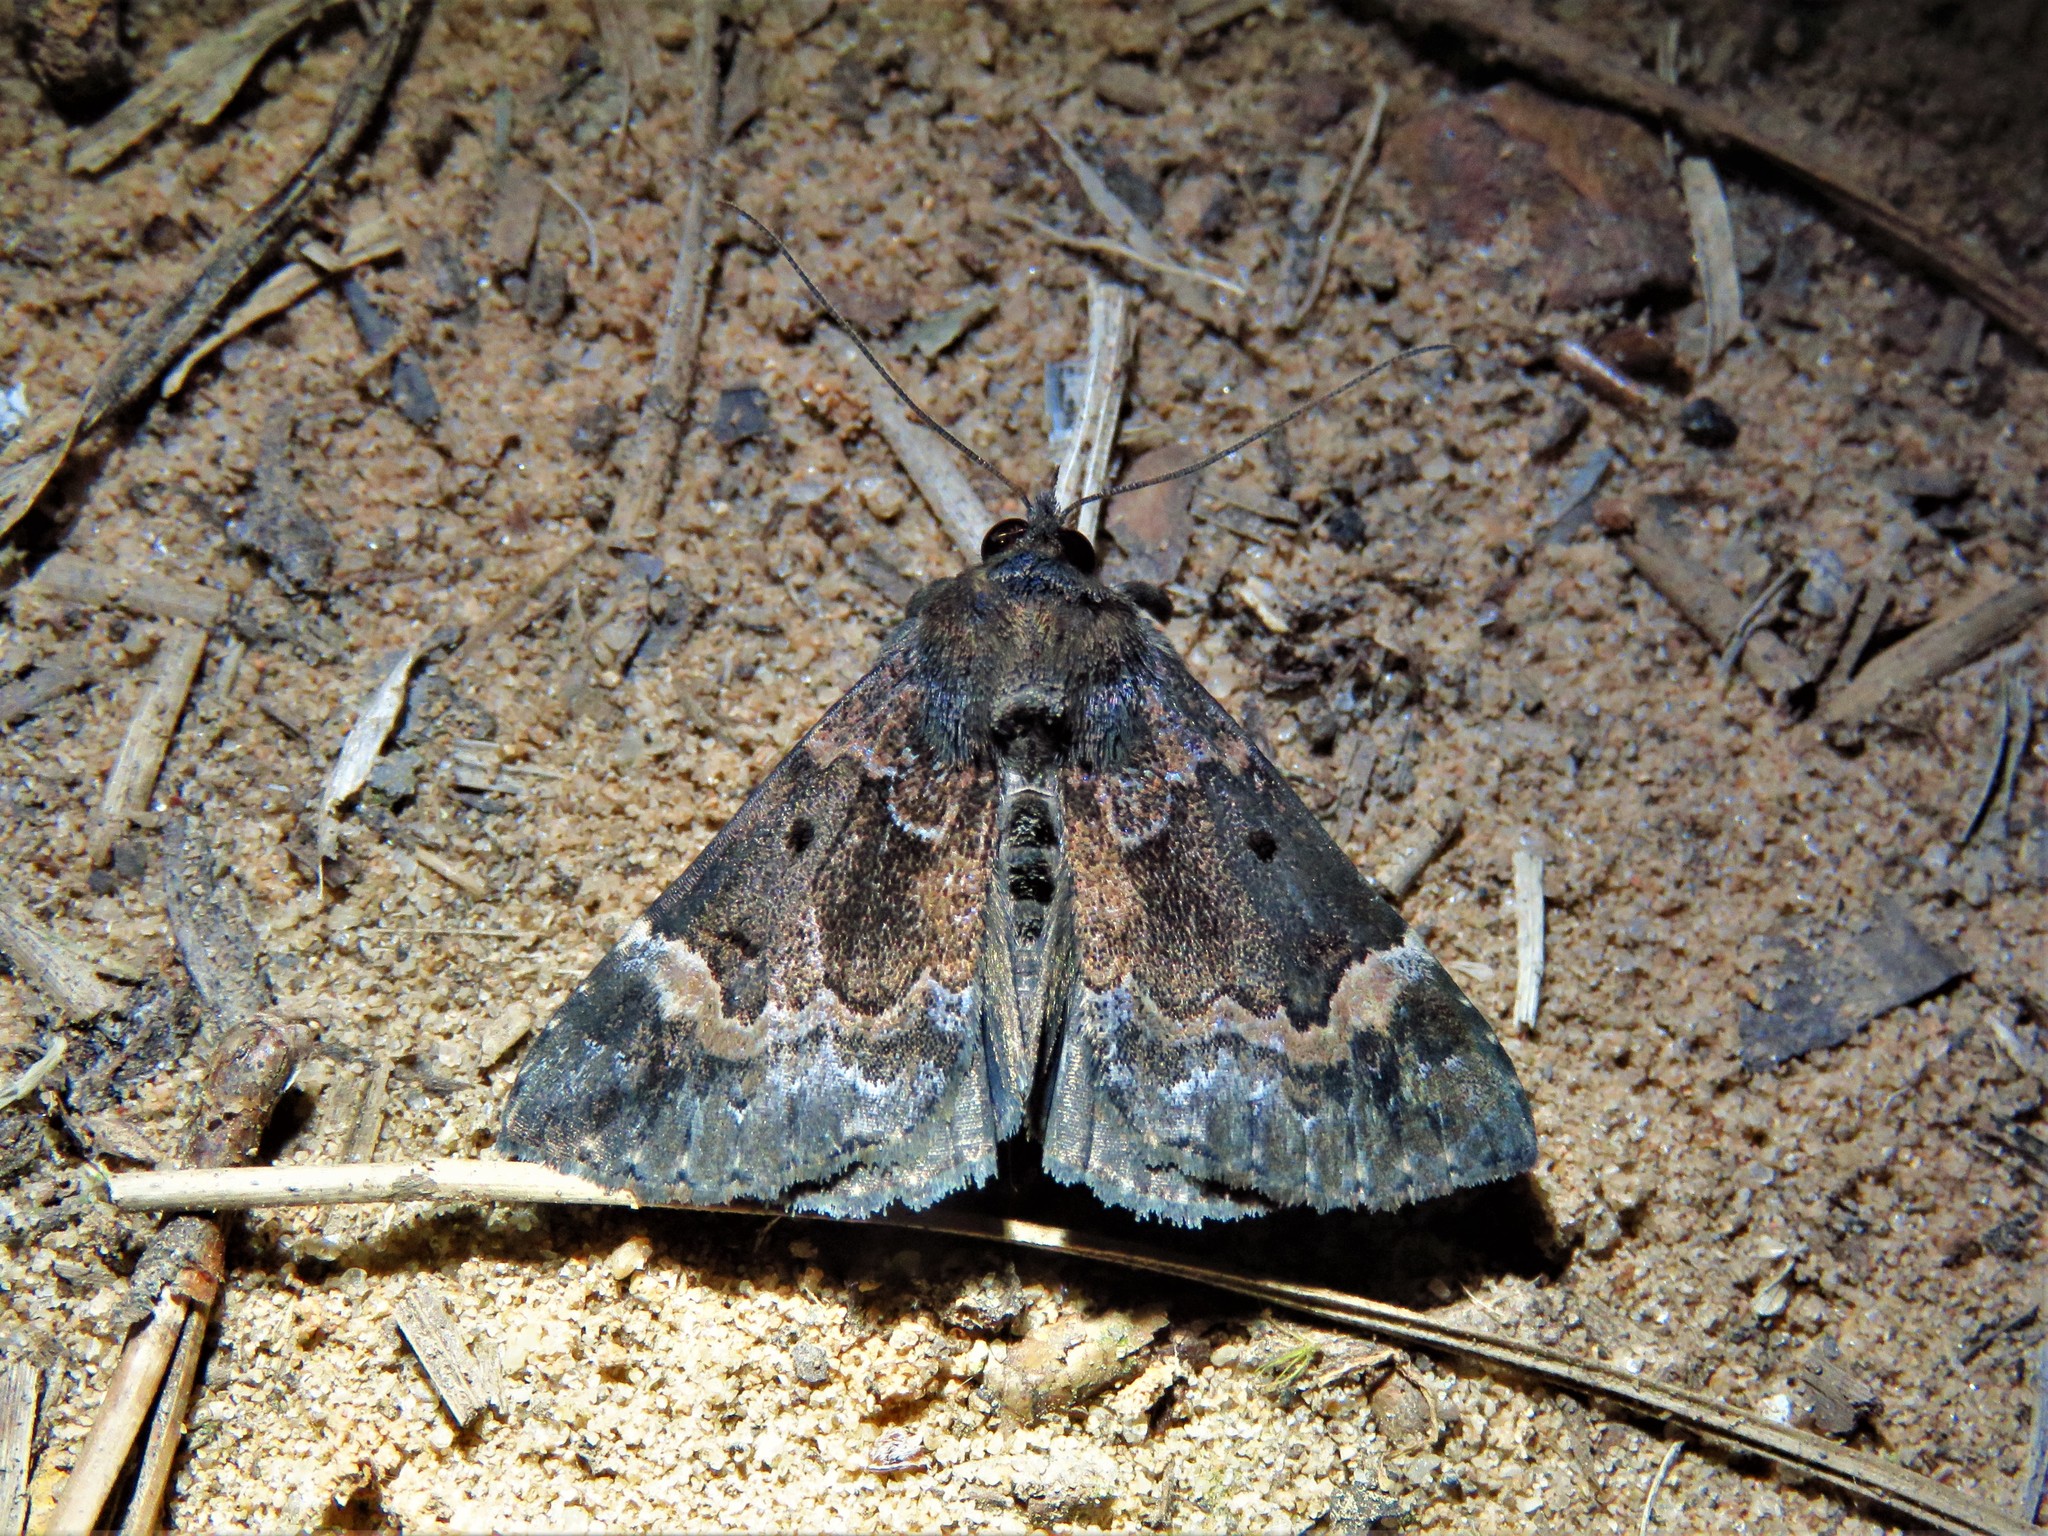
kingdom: Animalia
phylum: Arthropoda
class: Insecta
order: Lepidoptera
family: Erebidae
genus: Hypena
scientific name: Hypena palparia
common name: Mottled bomolocha moth
